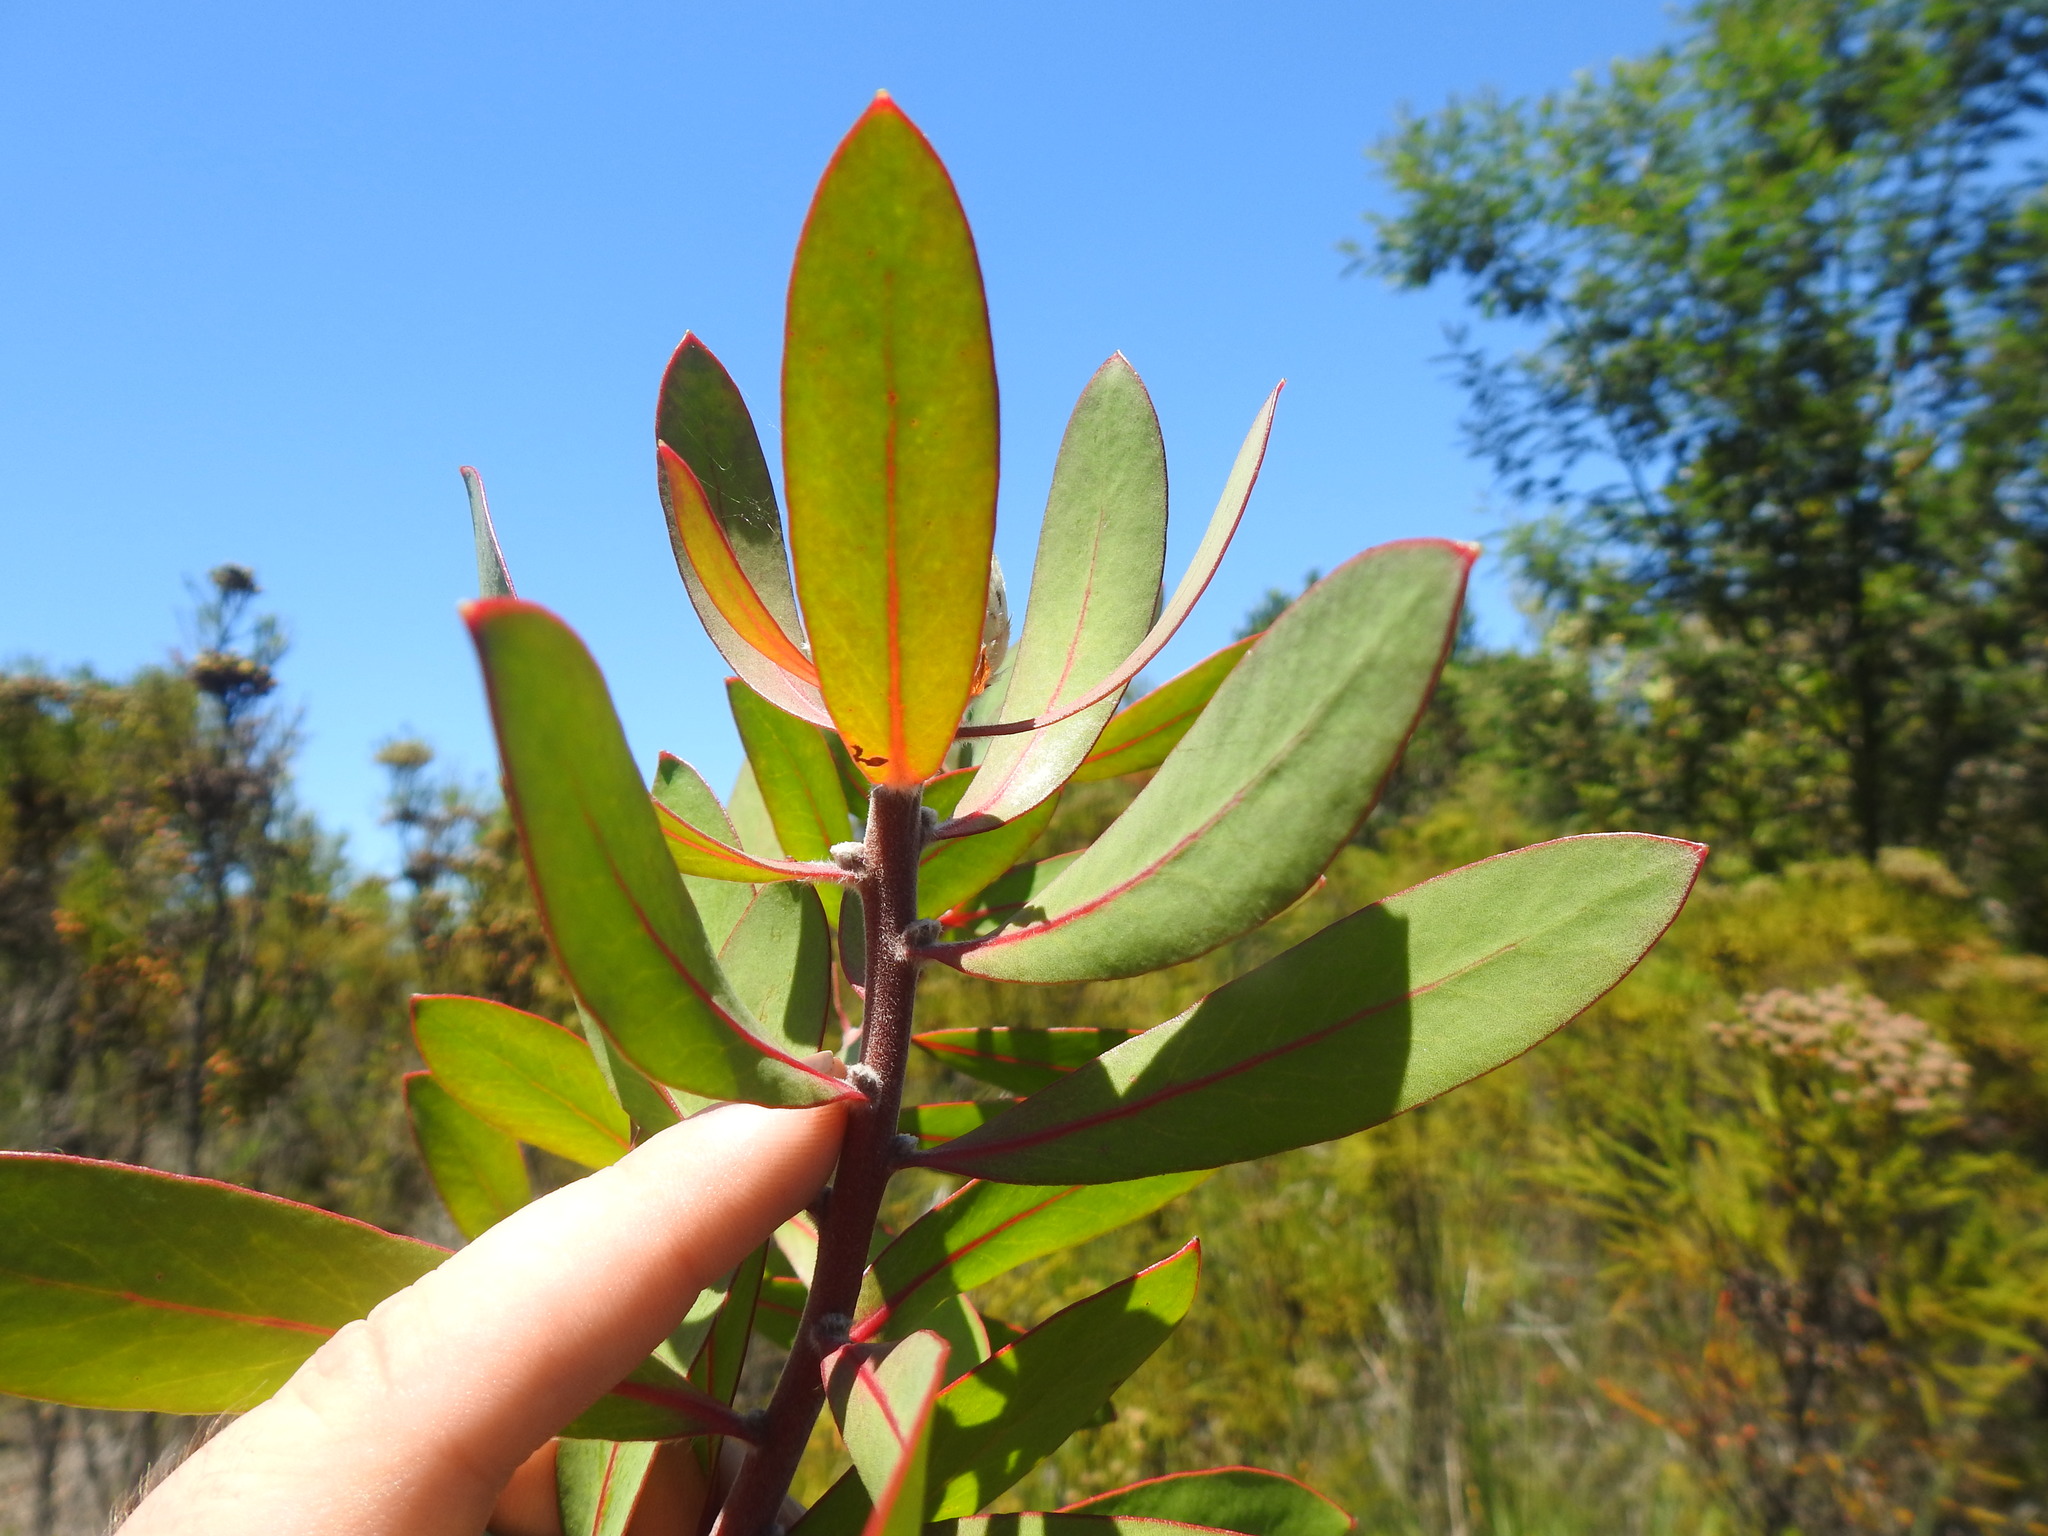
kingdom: Plantae
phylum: Tracheophyta
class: Magnoliopsida
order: Proteales
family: Proteaceae
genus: Protea
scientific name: Protea mundii
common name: Forest sugarbush
